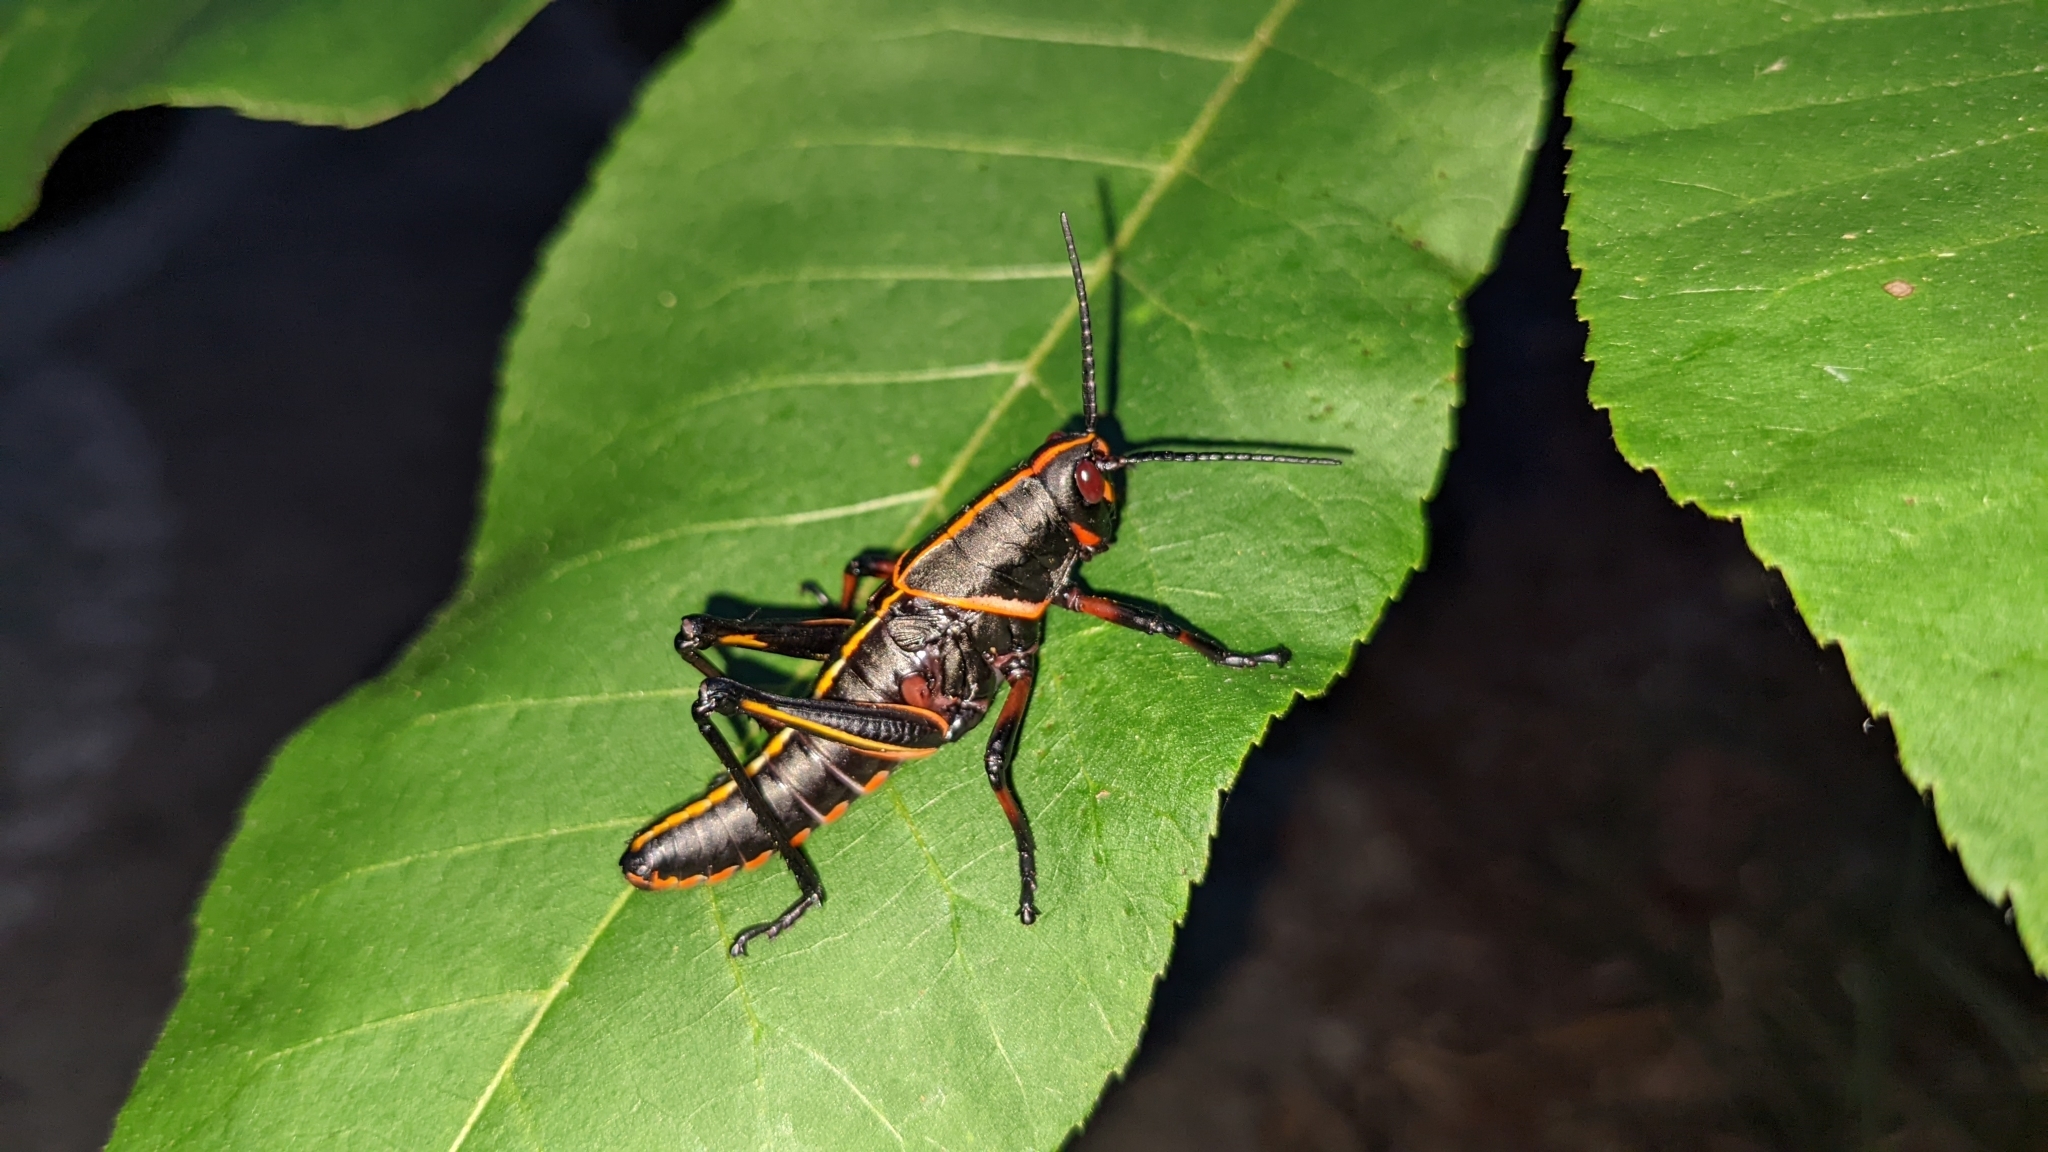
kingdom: Animalia
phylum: Arthropoda
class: Insecta
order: Orthoptera
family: Romaleidae
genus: Romalea
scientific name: Romalea microptera
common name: Eastern lubber grasshopper
